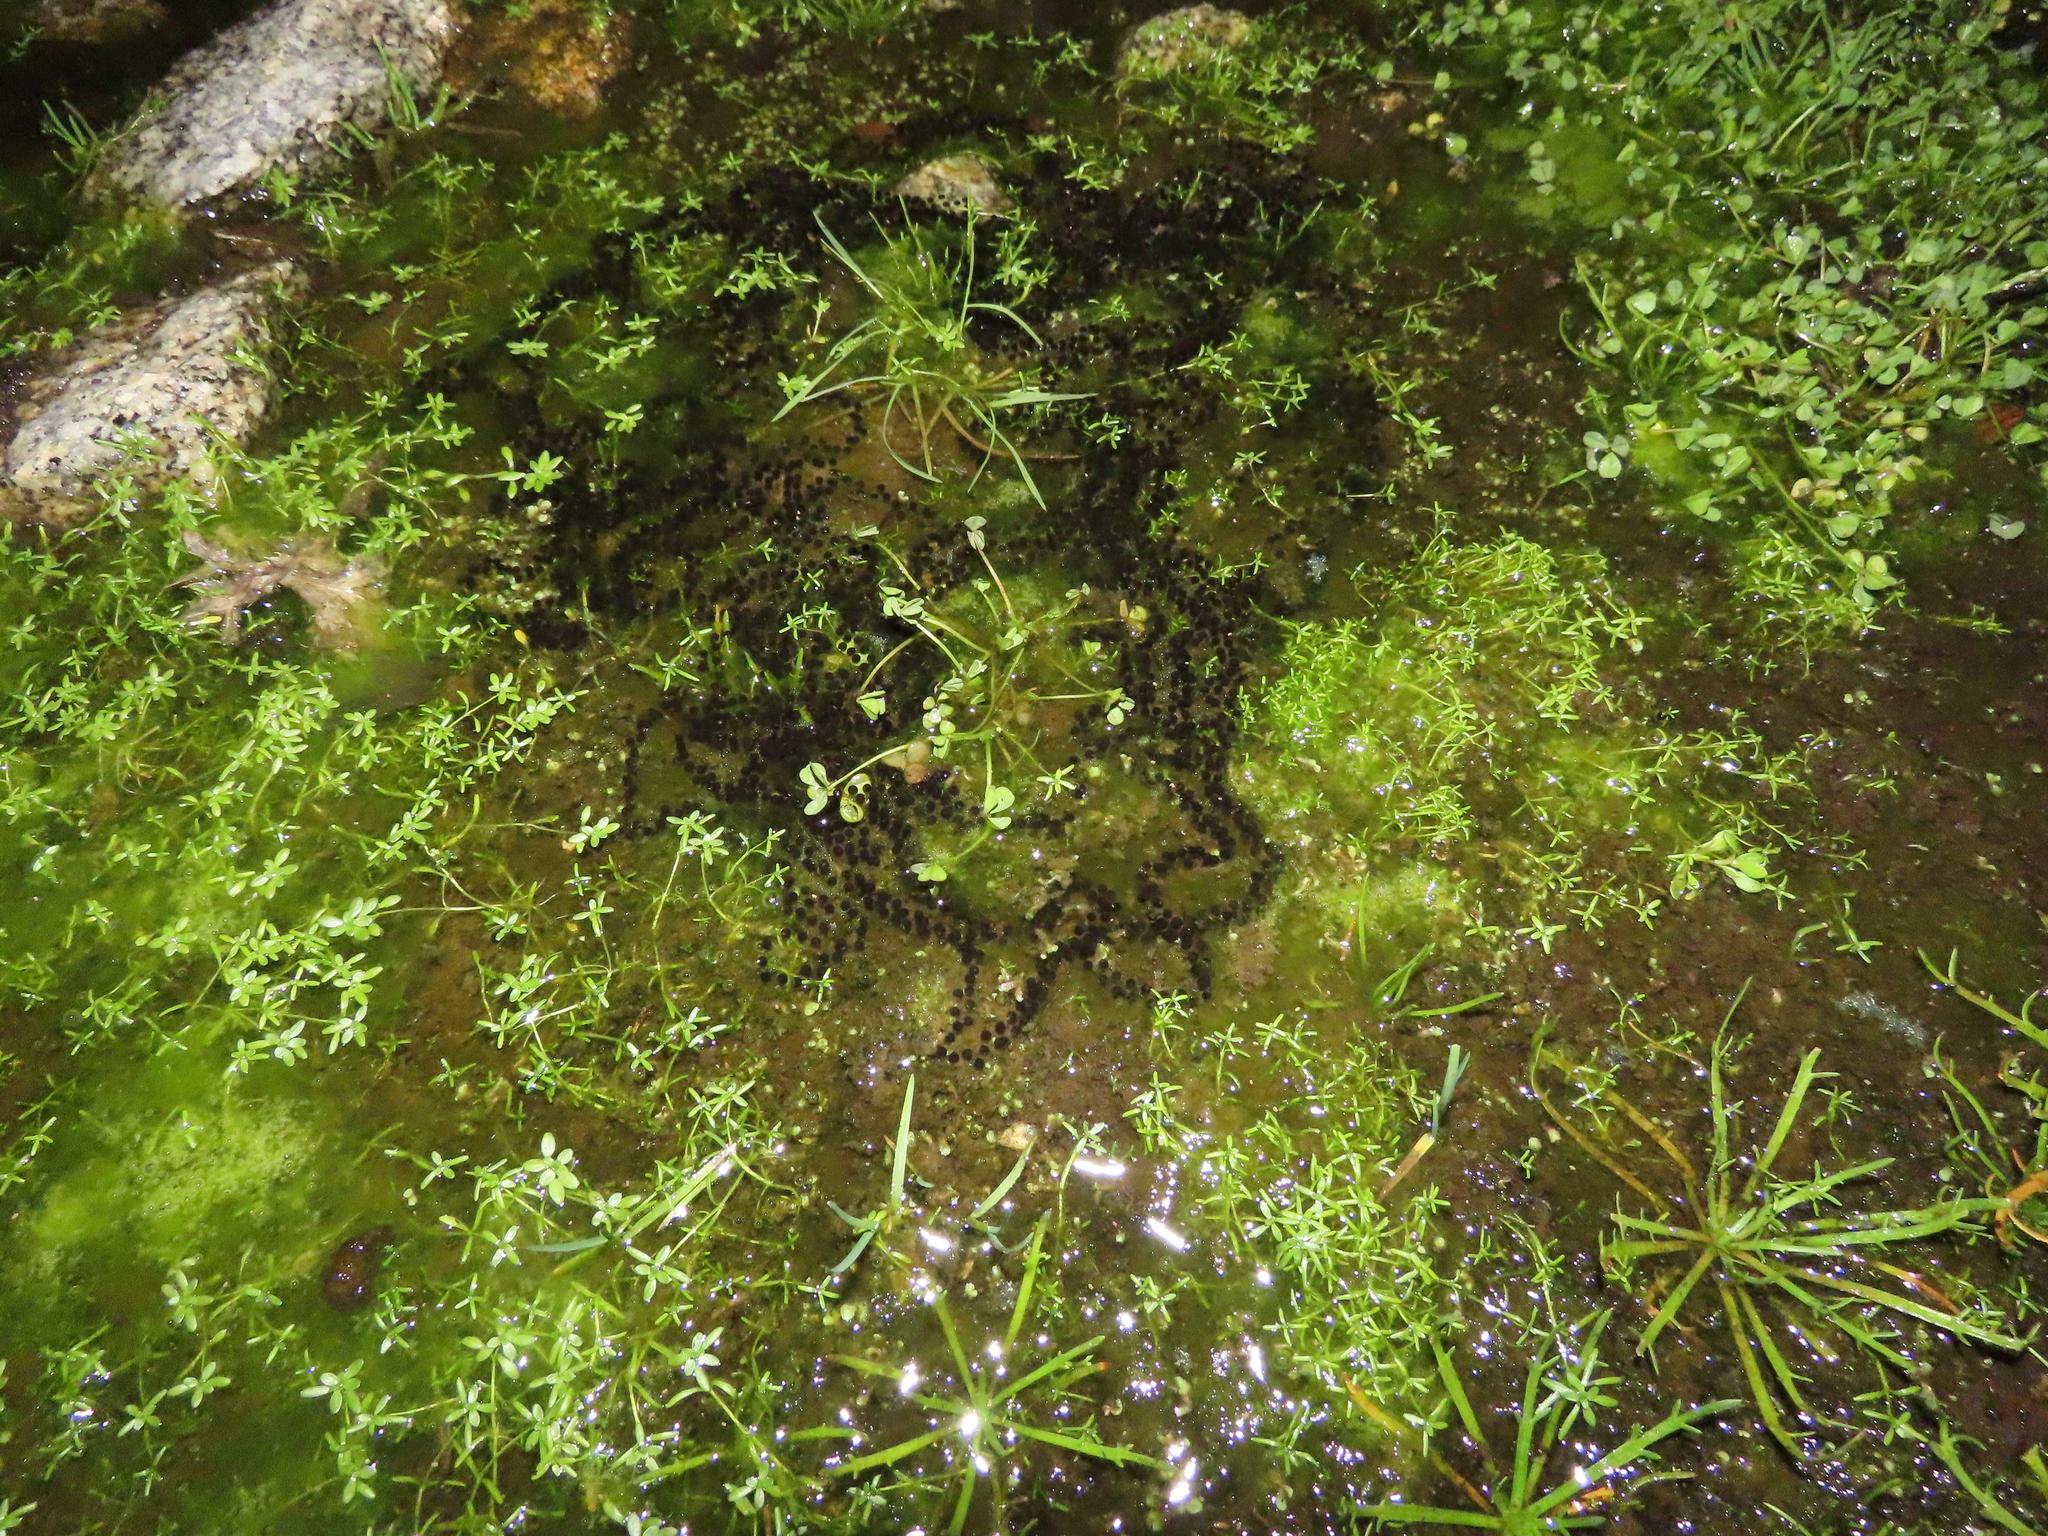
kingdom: Animalia
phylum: Chordata
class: Amphibia
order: Anura
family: Bufonidae
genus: Epidalea
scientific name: Epidalea calamita
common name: Natterjack toad
